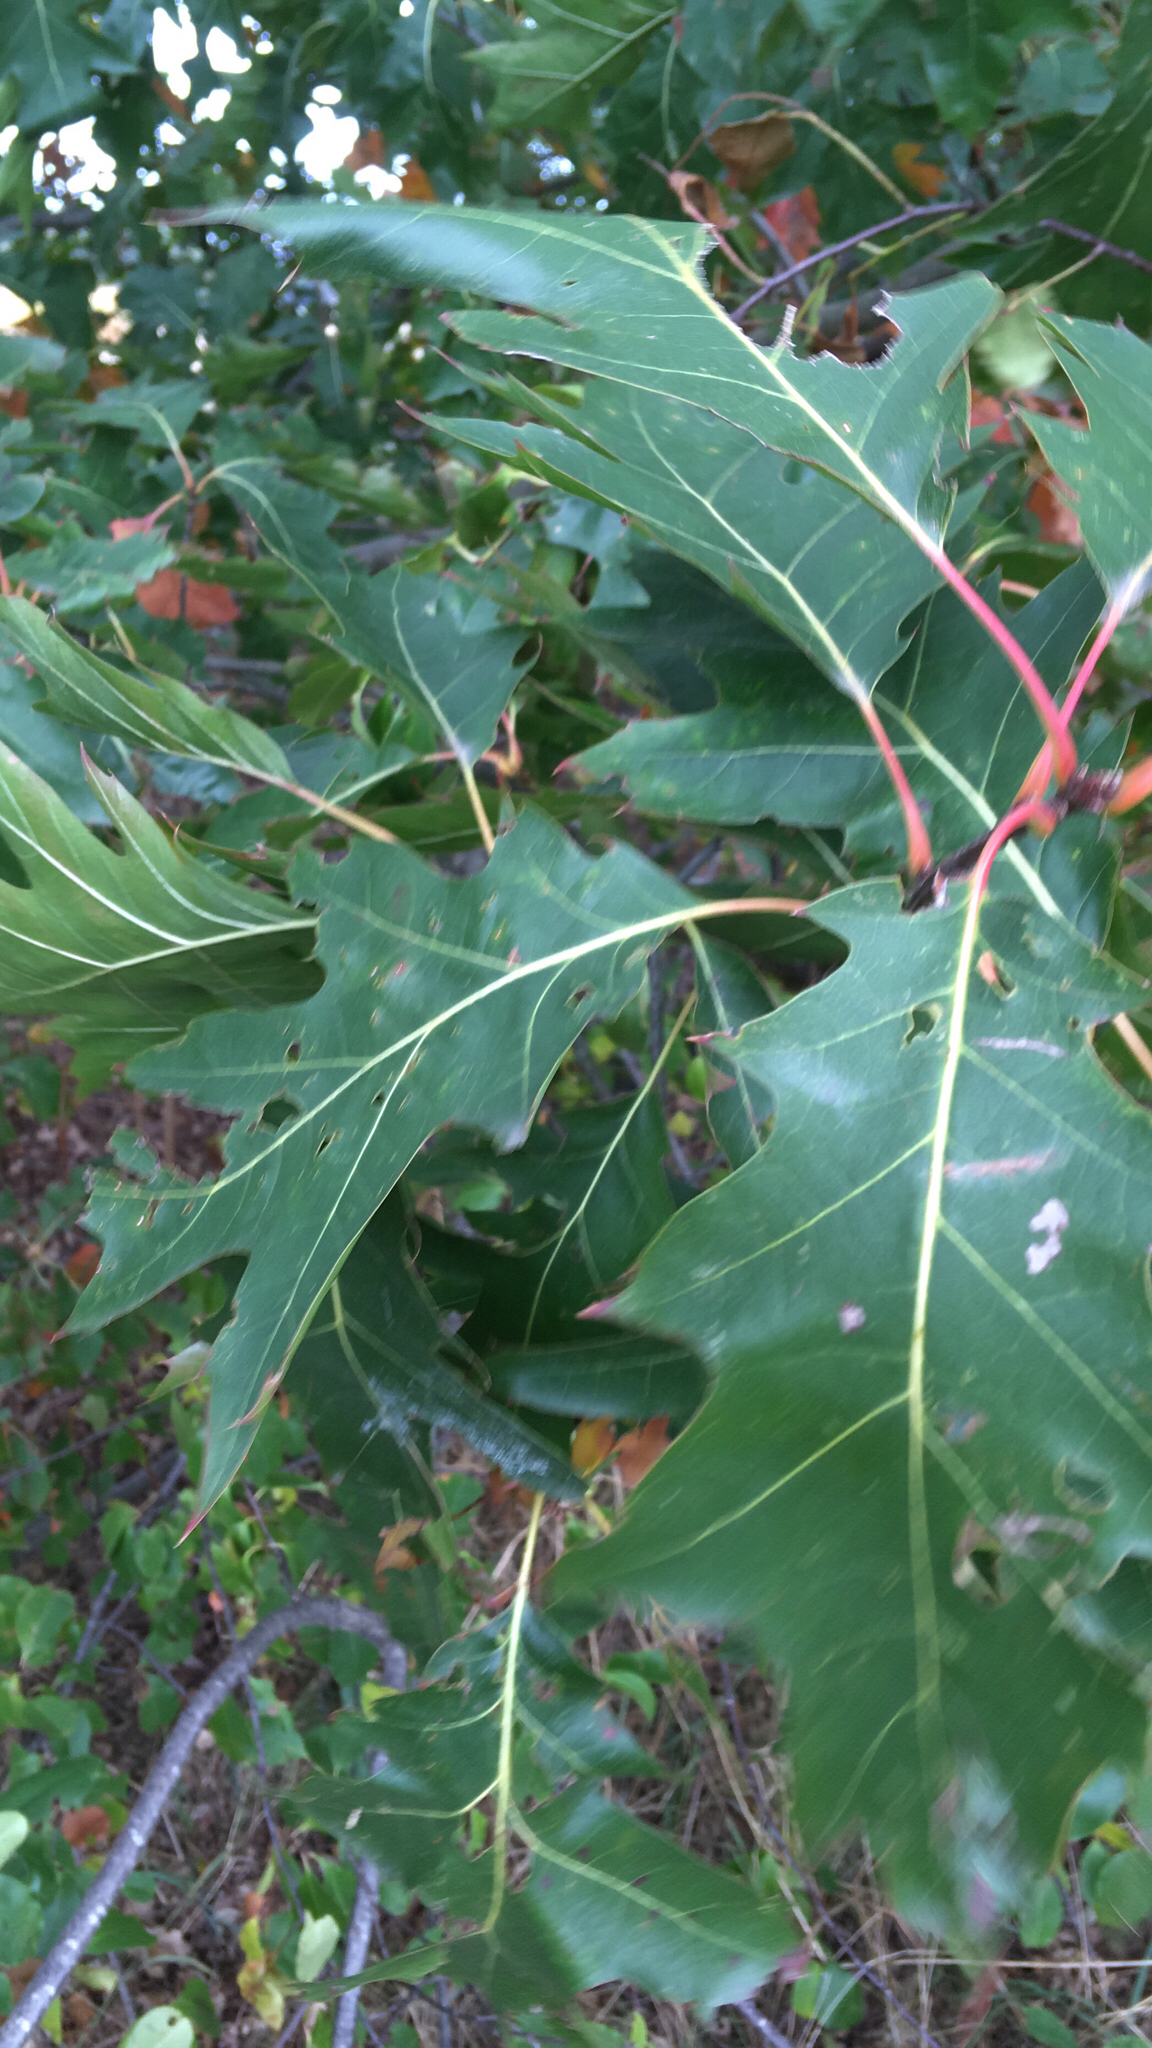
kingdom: Plantae
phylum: Tracheophyta
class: Magnoliopsida
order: Fagales
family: Fagaceae
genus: Quercus
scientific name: Quercus rubra
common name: Red oak
